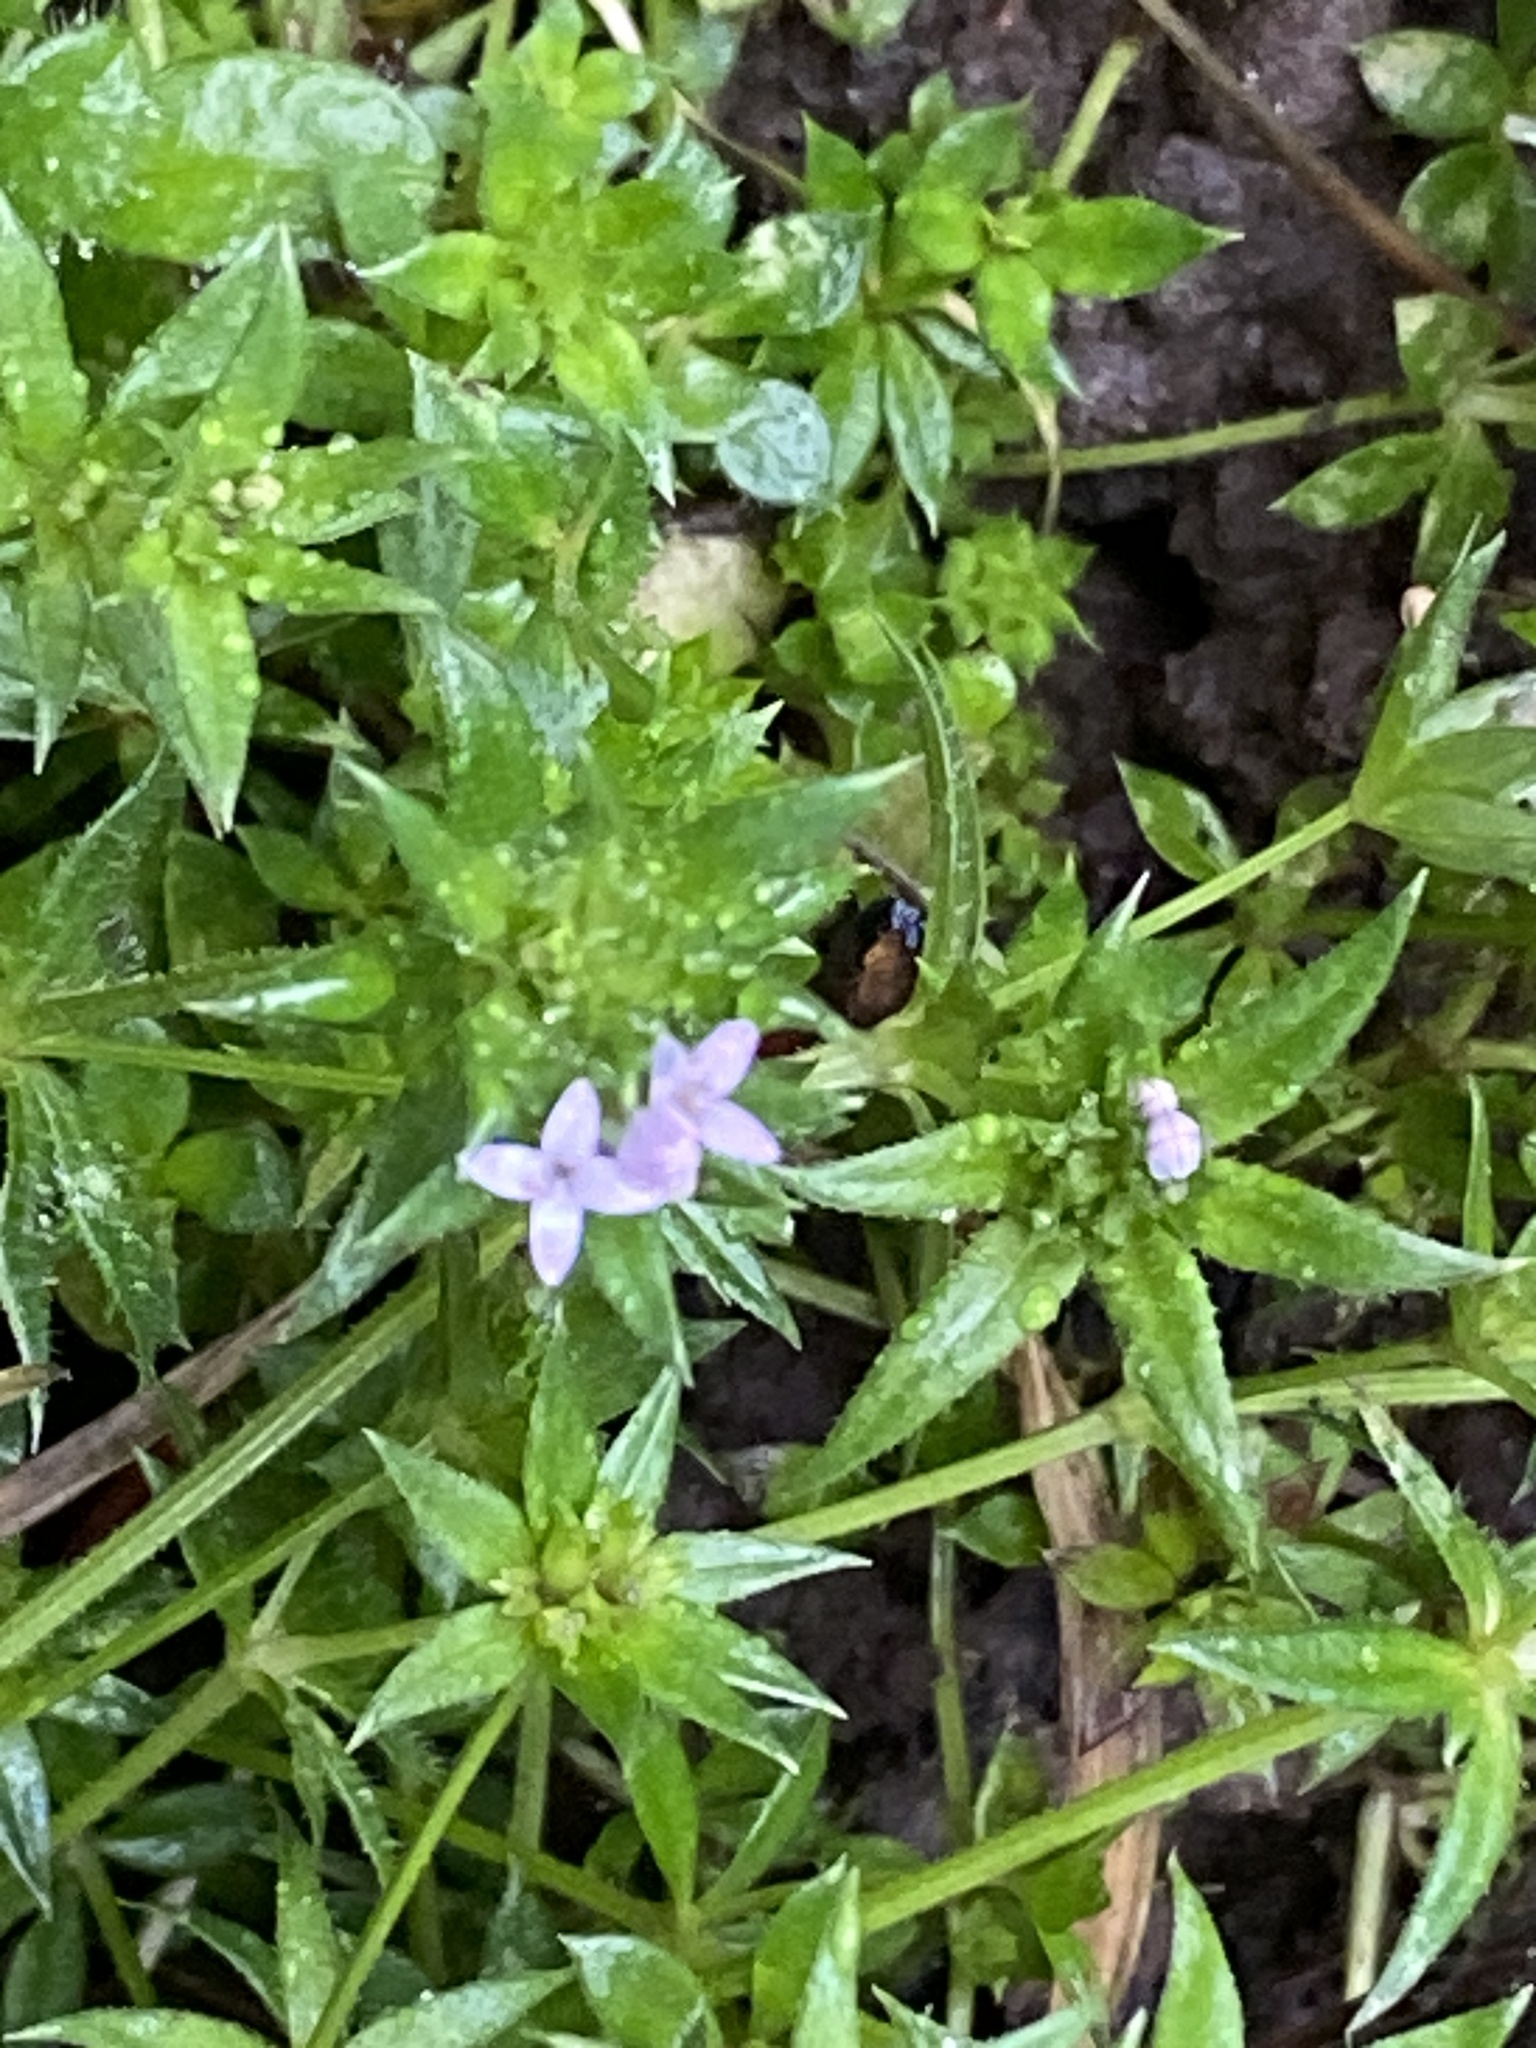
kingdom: Plantae
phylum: Tracheophyta
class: Magnoliopsida
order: Gentianales
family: Rubiaceae
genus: Sherardia
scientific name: Sherardia arvensis
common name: Field madder
